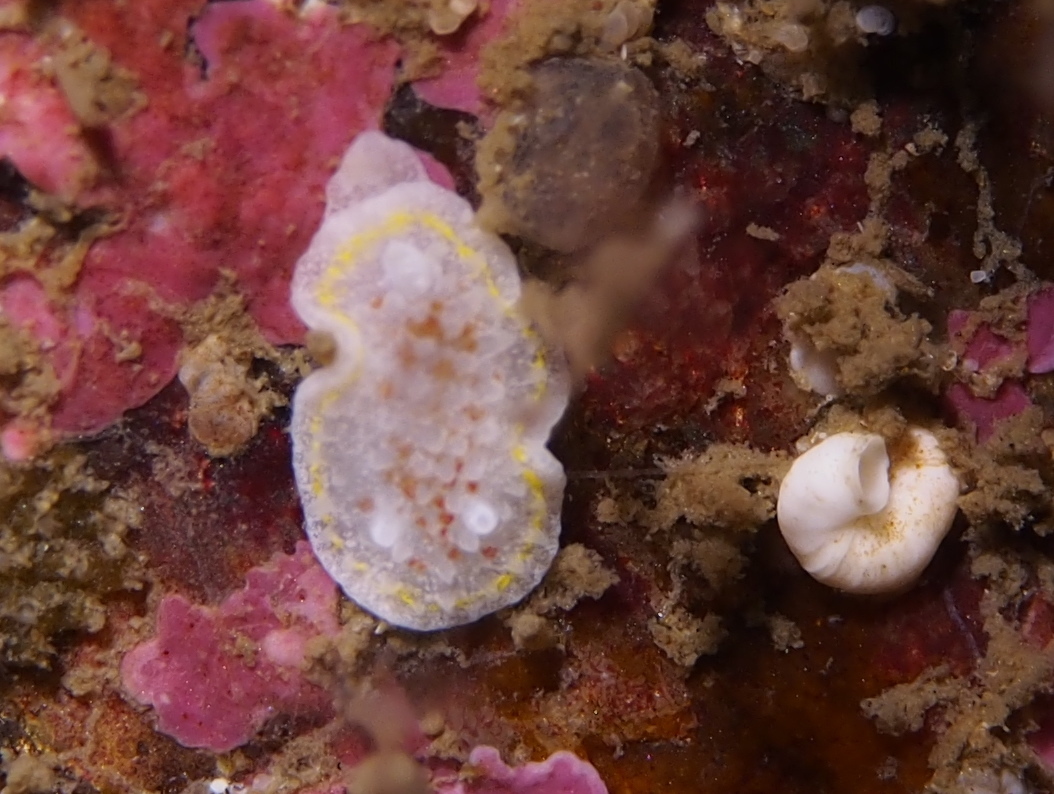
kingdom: Animalia
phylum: Mollusca
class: Gastropoda
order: Nudibranchia
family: Calycidorididae
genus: Diaphorodoris
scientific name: Diaphorodoris luteocincta
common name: Fried egg nudibranch
